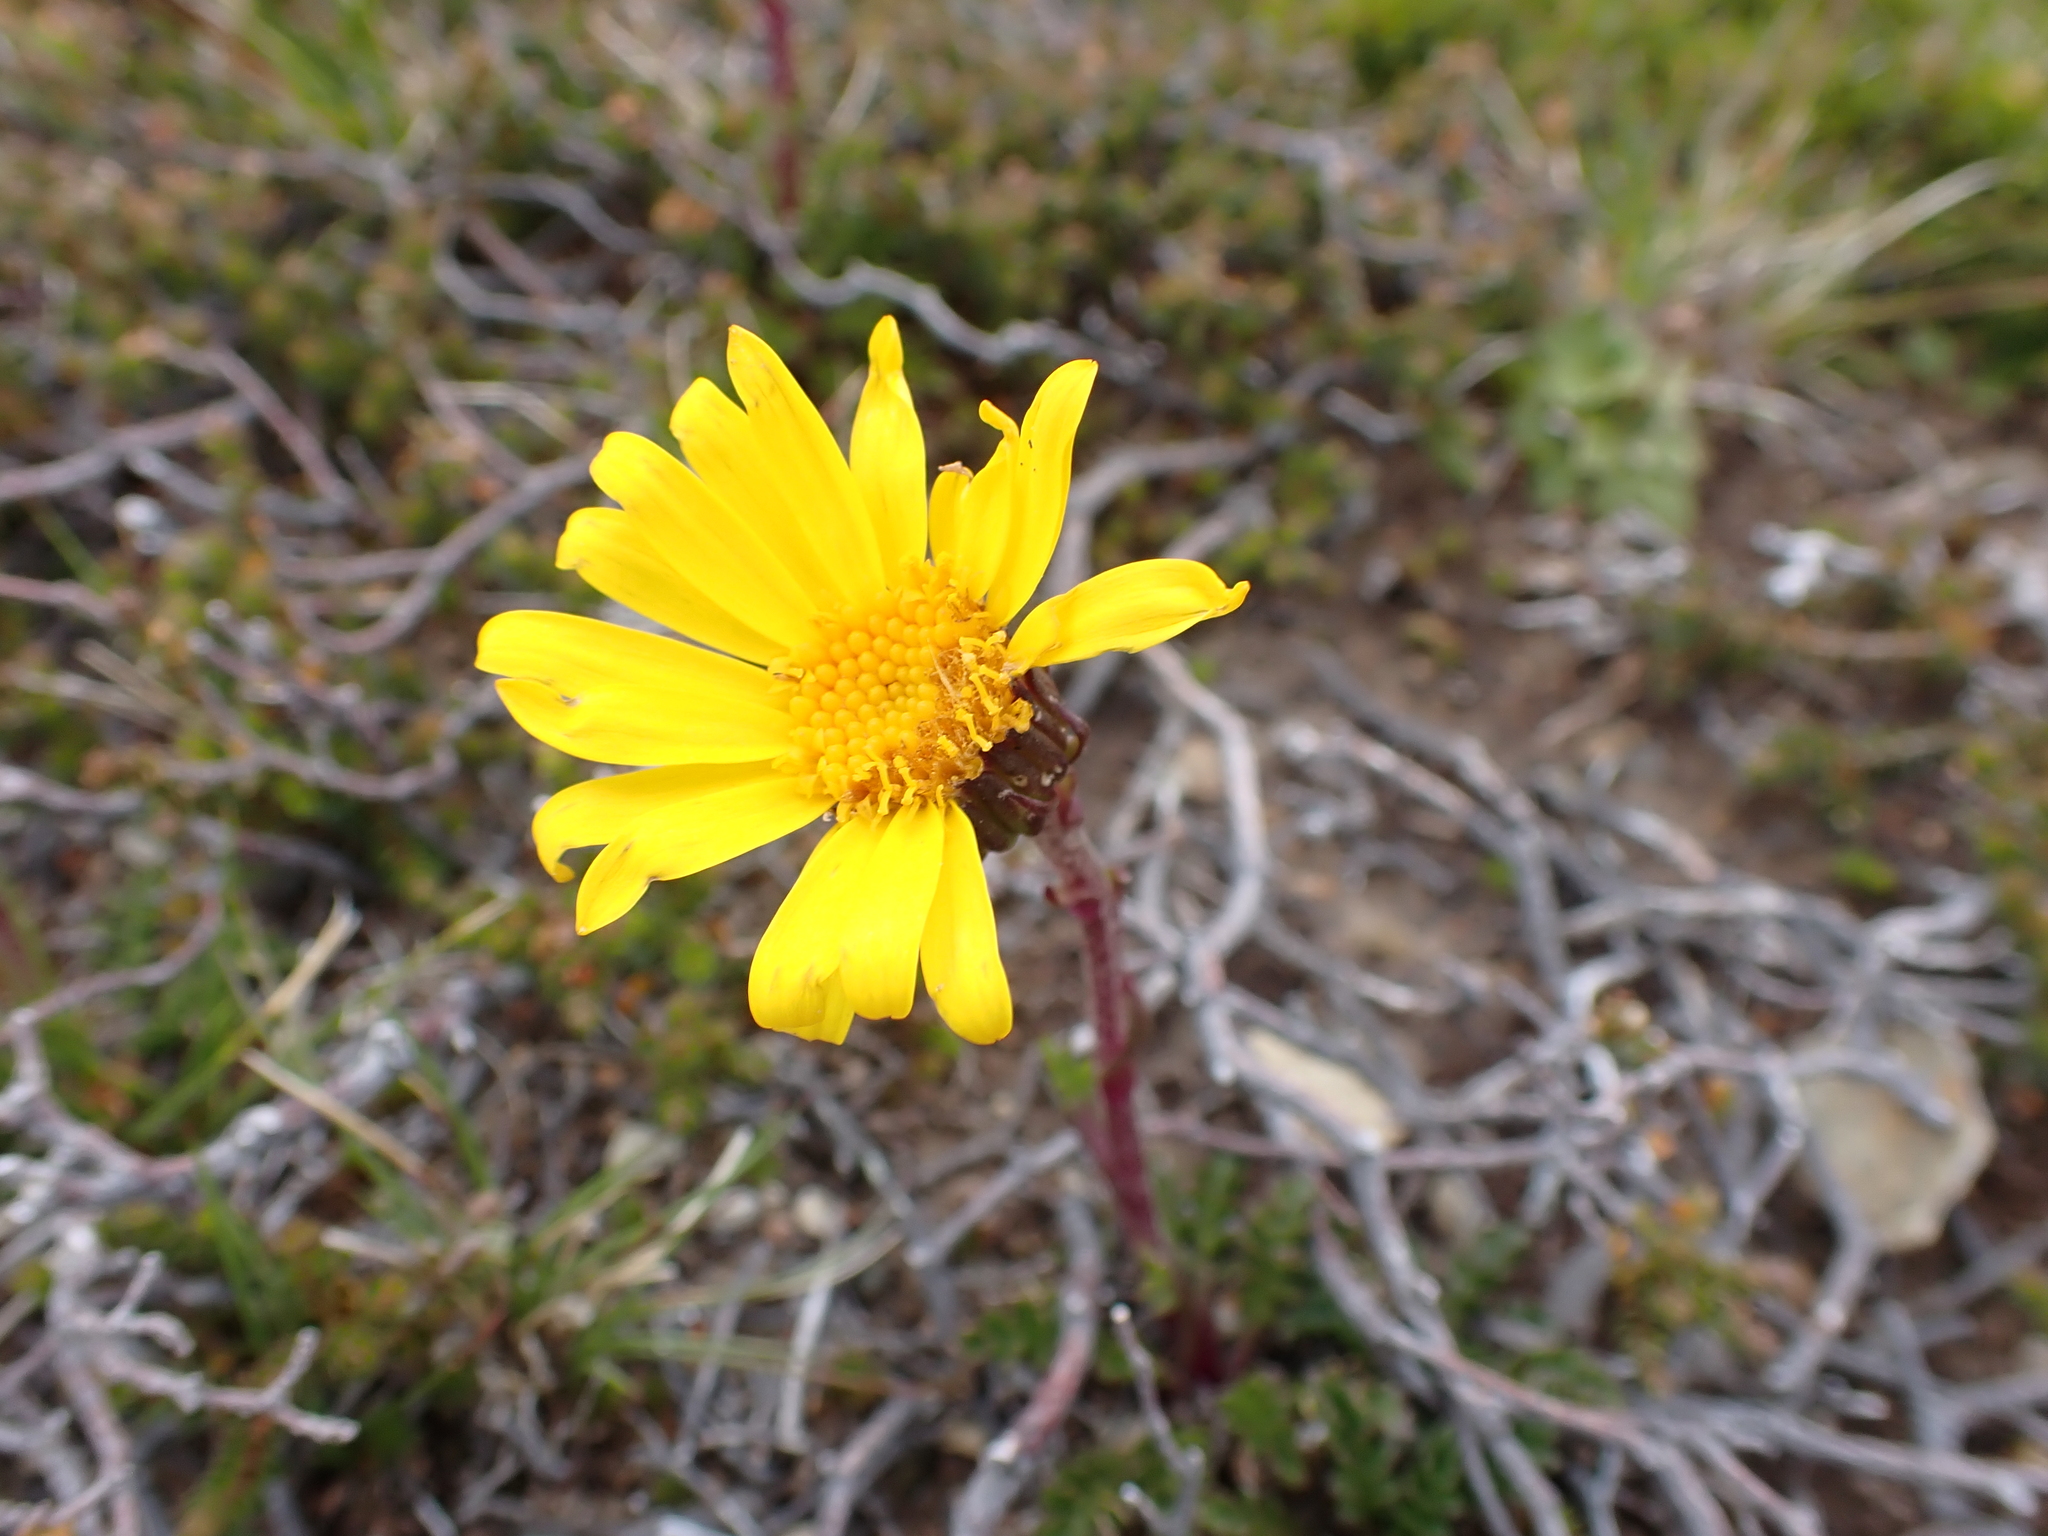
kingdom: Plantae
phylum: Tracheophyta
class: Magnoliopsida
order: Asterales
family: Asteraceae
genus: Scapisenecio
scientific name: Scapisenecio pectinatus
